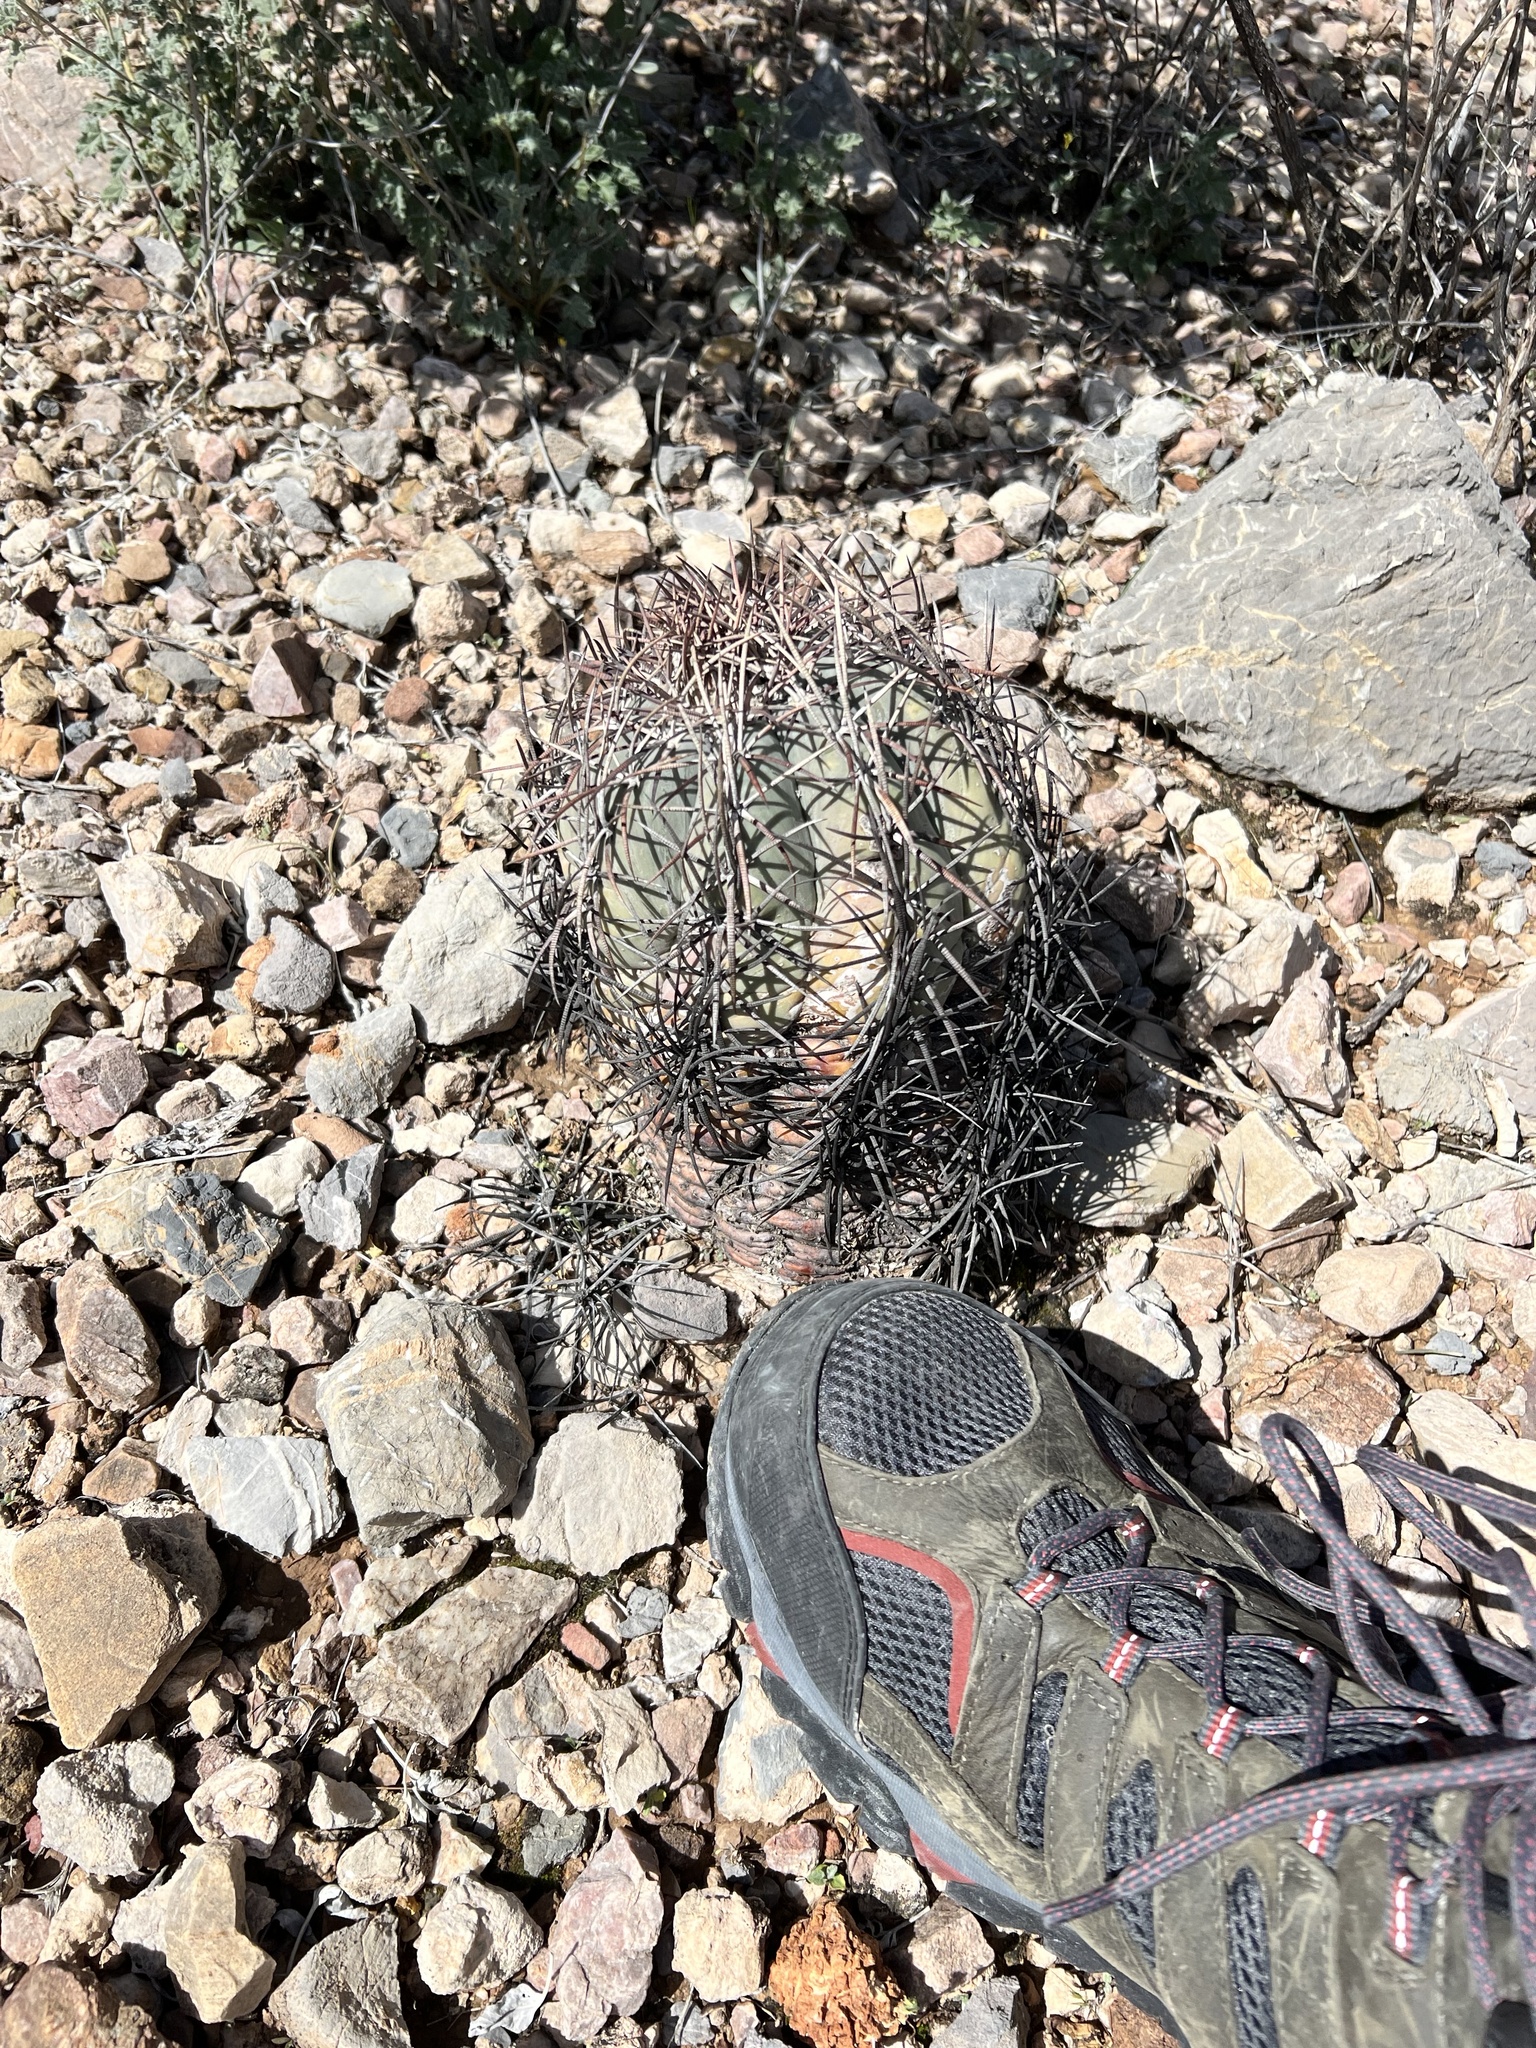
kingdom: Plantae
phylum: Tracheophyta
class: Magnoliopsida
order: Caryophyllales
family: Cactaceae
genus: Echinocactus
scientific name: Echinocactus horizonthalonius
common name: Devilshead
